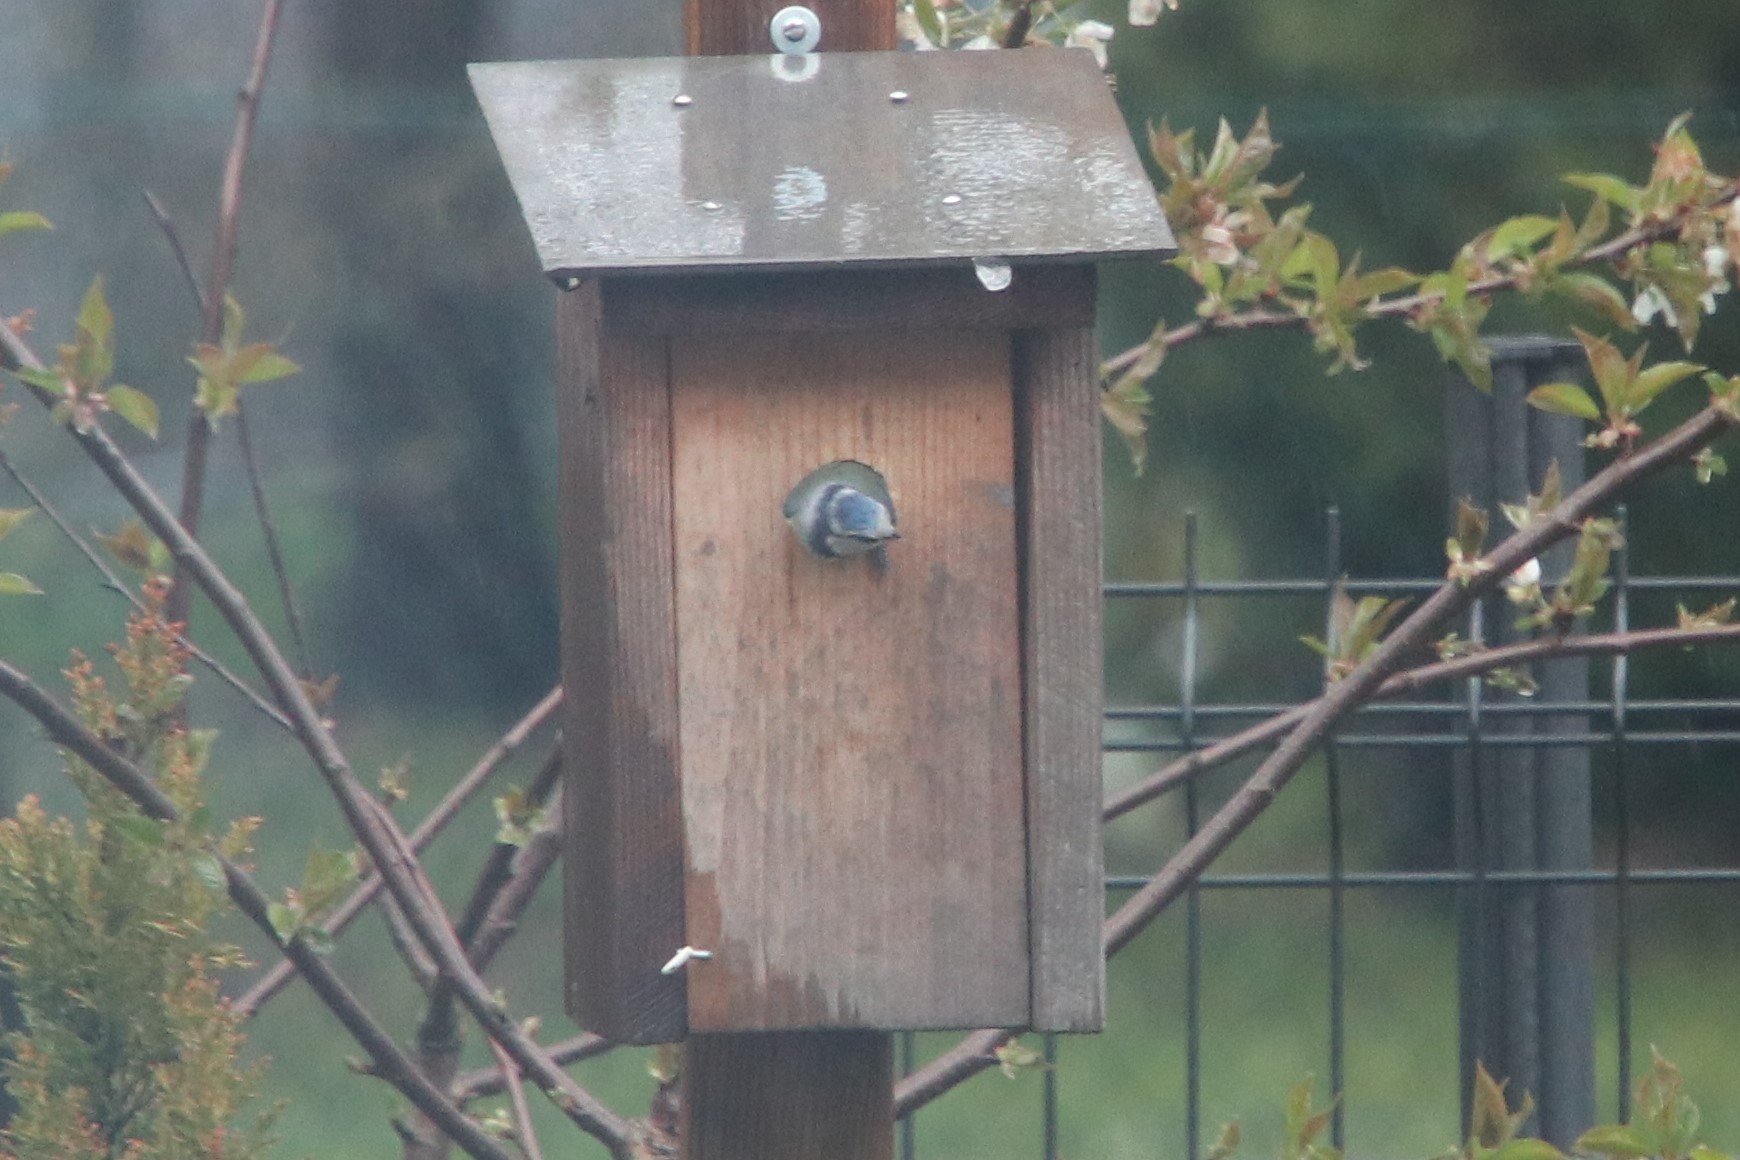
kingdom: Animalia
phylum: Chordata
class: Aves
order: Passeriformes
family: Paridae
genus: Cyanistes
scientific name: Cyanistes caeruleus
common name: Eurasian blue tit
